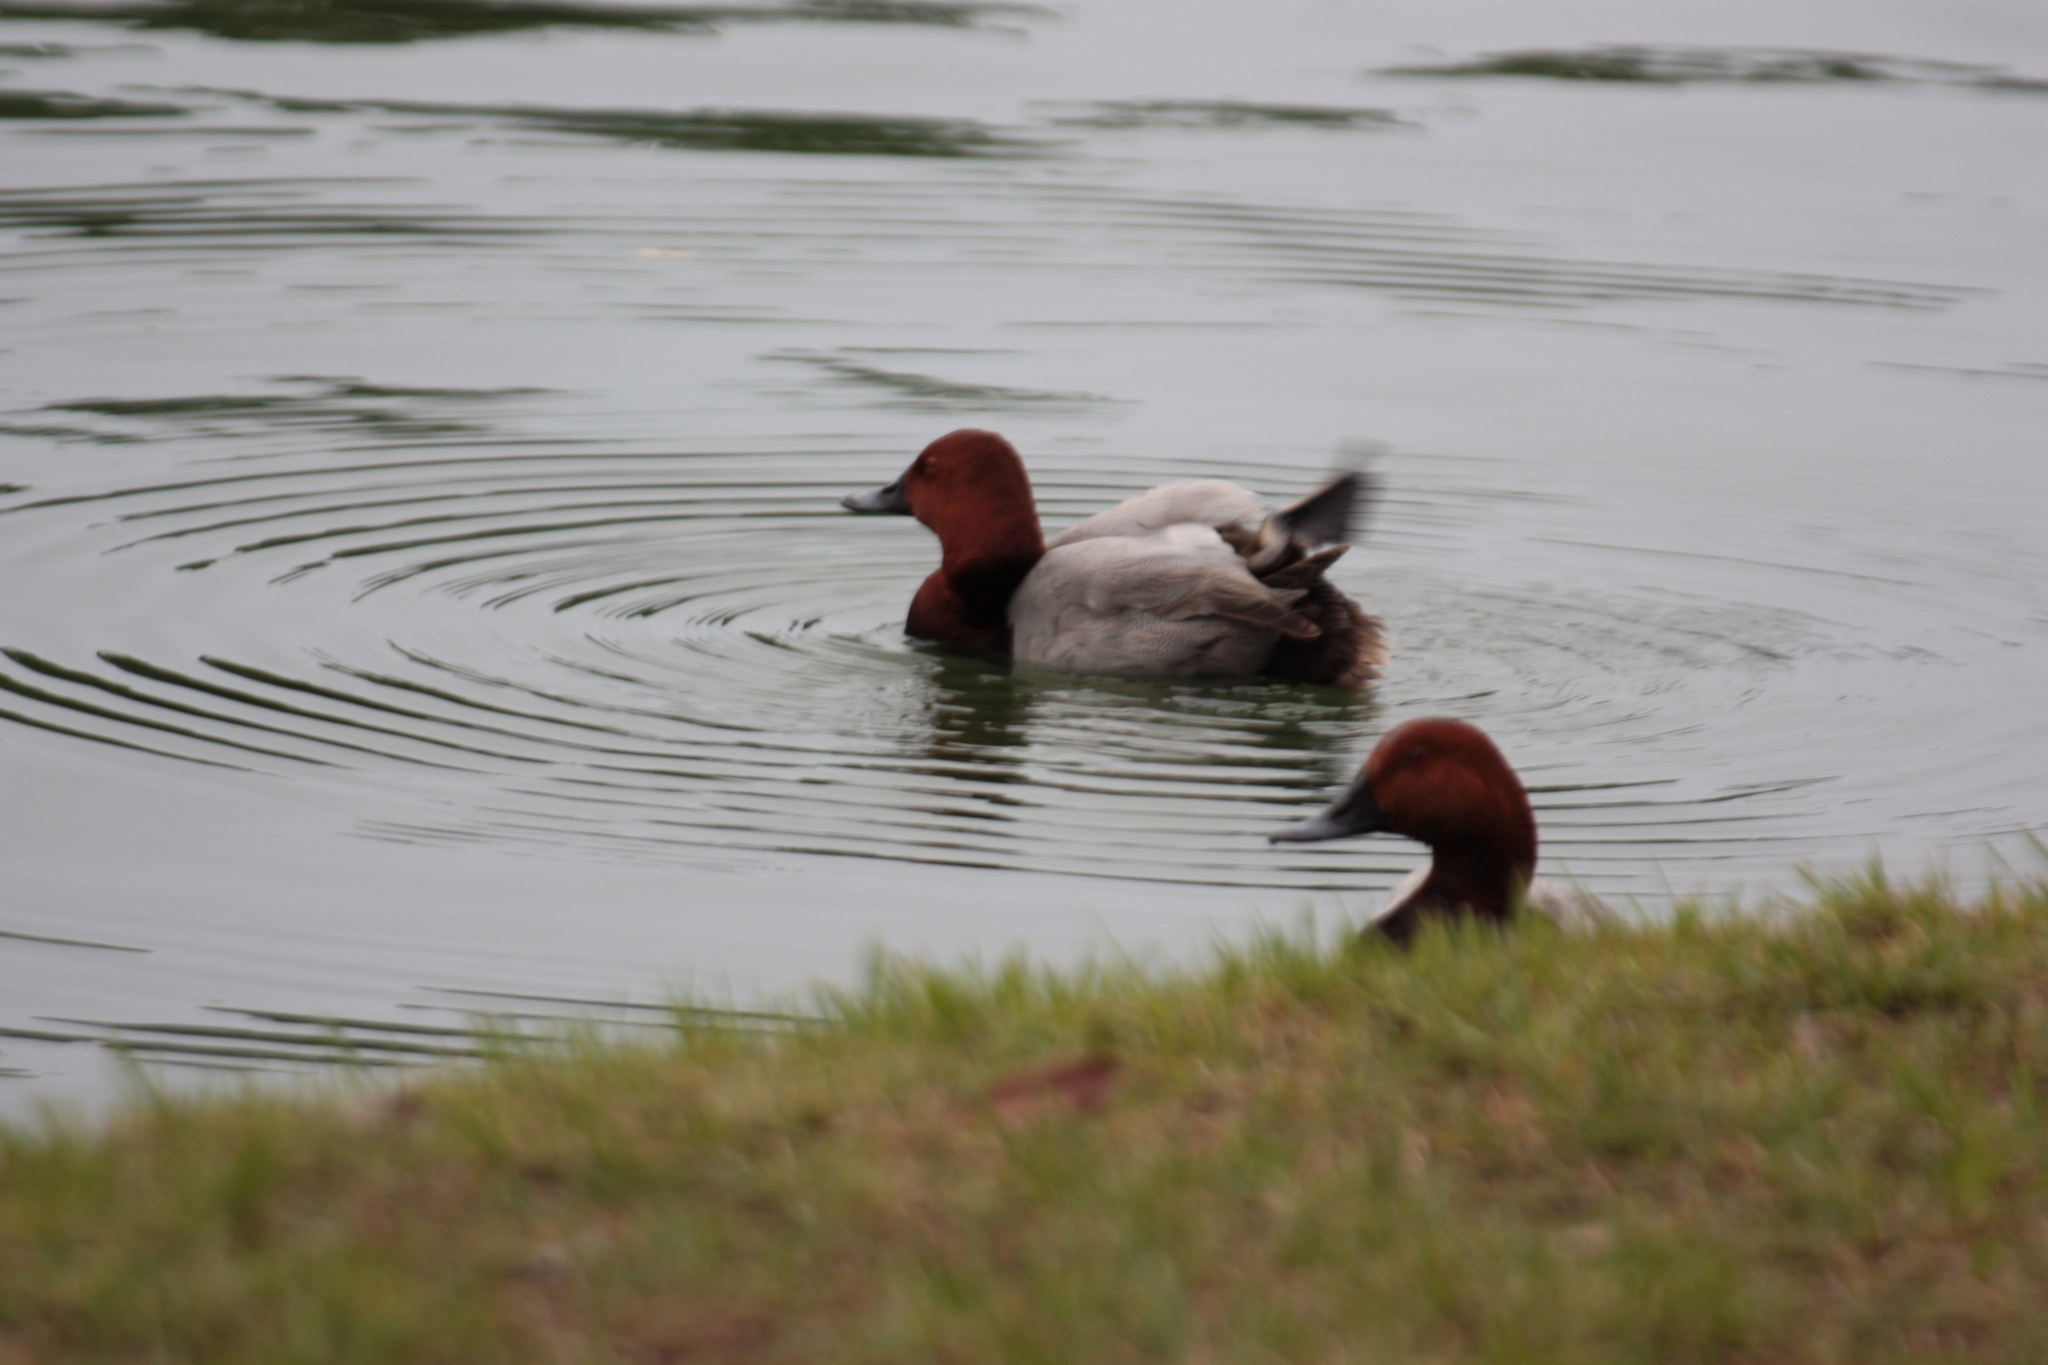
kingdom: Animalia
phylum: Chordata
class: Aves
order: Anseriformes
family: Anatidae
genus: Aythya
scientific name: Aythya ferina
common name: Common pochard
